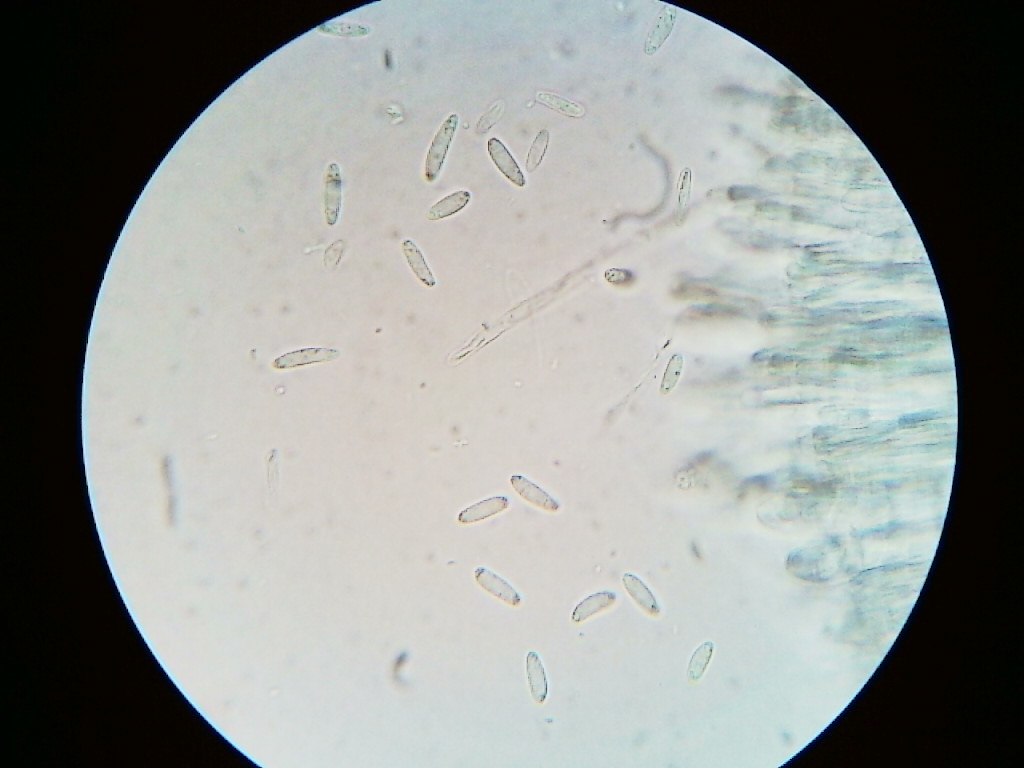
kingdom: Fungi
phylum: Ascomycota
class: Leotiomycetes
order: Helotiales
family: Mollisiaceae
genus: Tapesia
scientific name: Tapesia lividofusca
